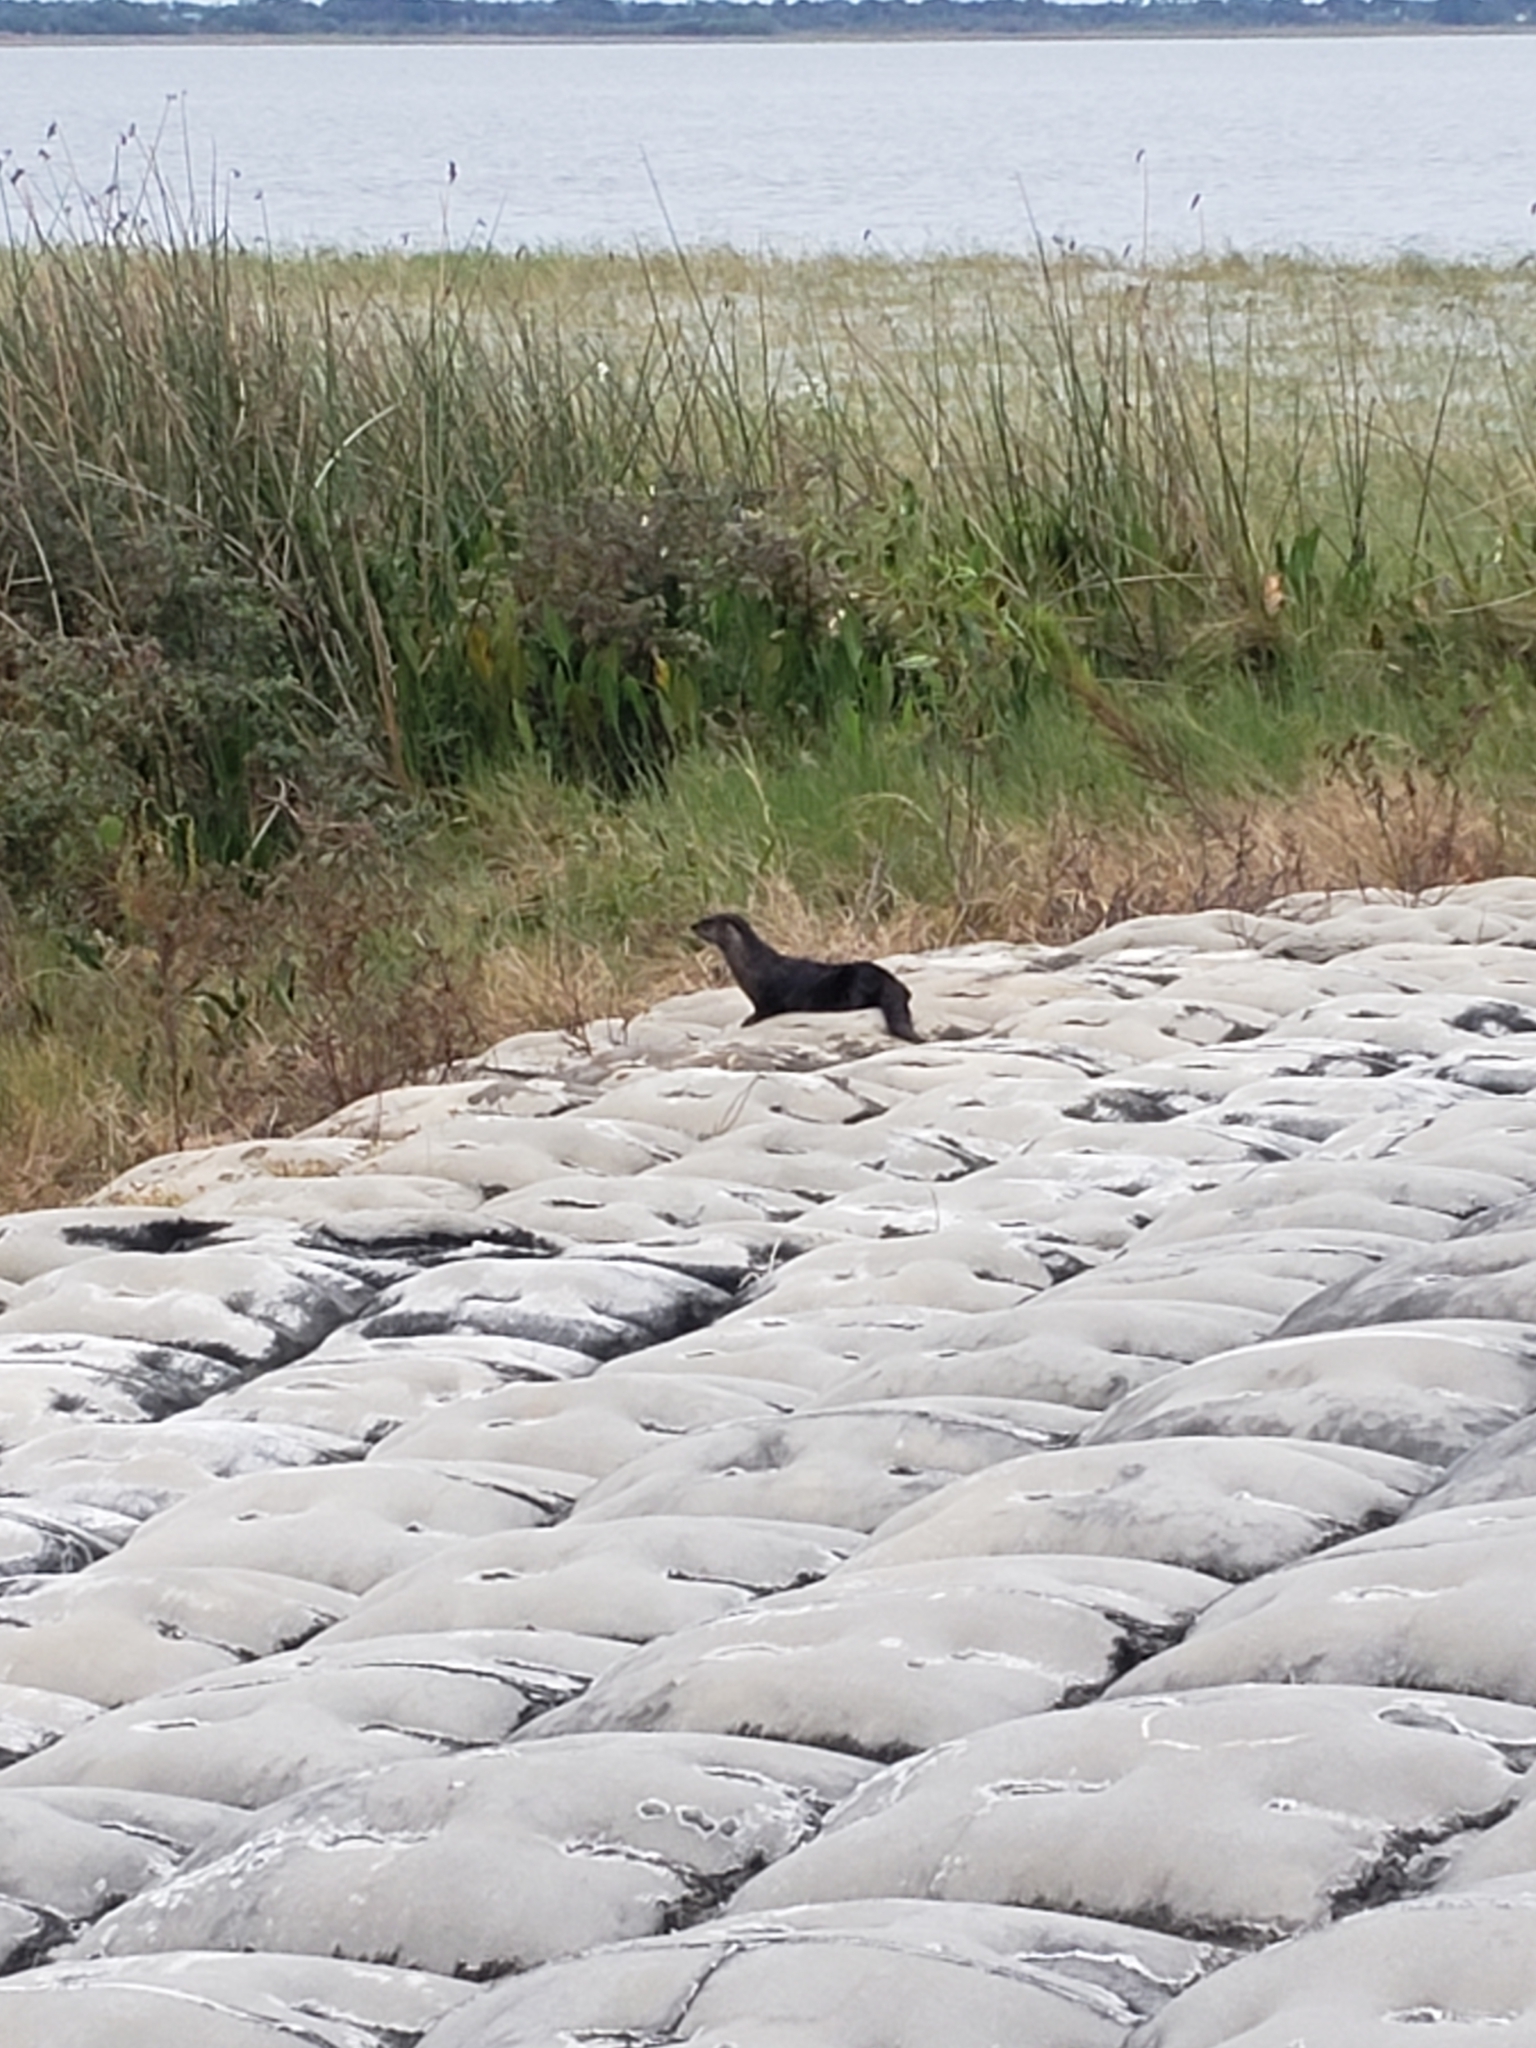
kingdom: Animalia
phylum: Chordata
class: Mammalia
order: Carnivora
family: Mustelidae
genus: Lontra
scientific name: Lontra canadensis
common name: North american river otter
